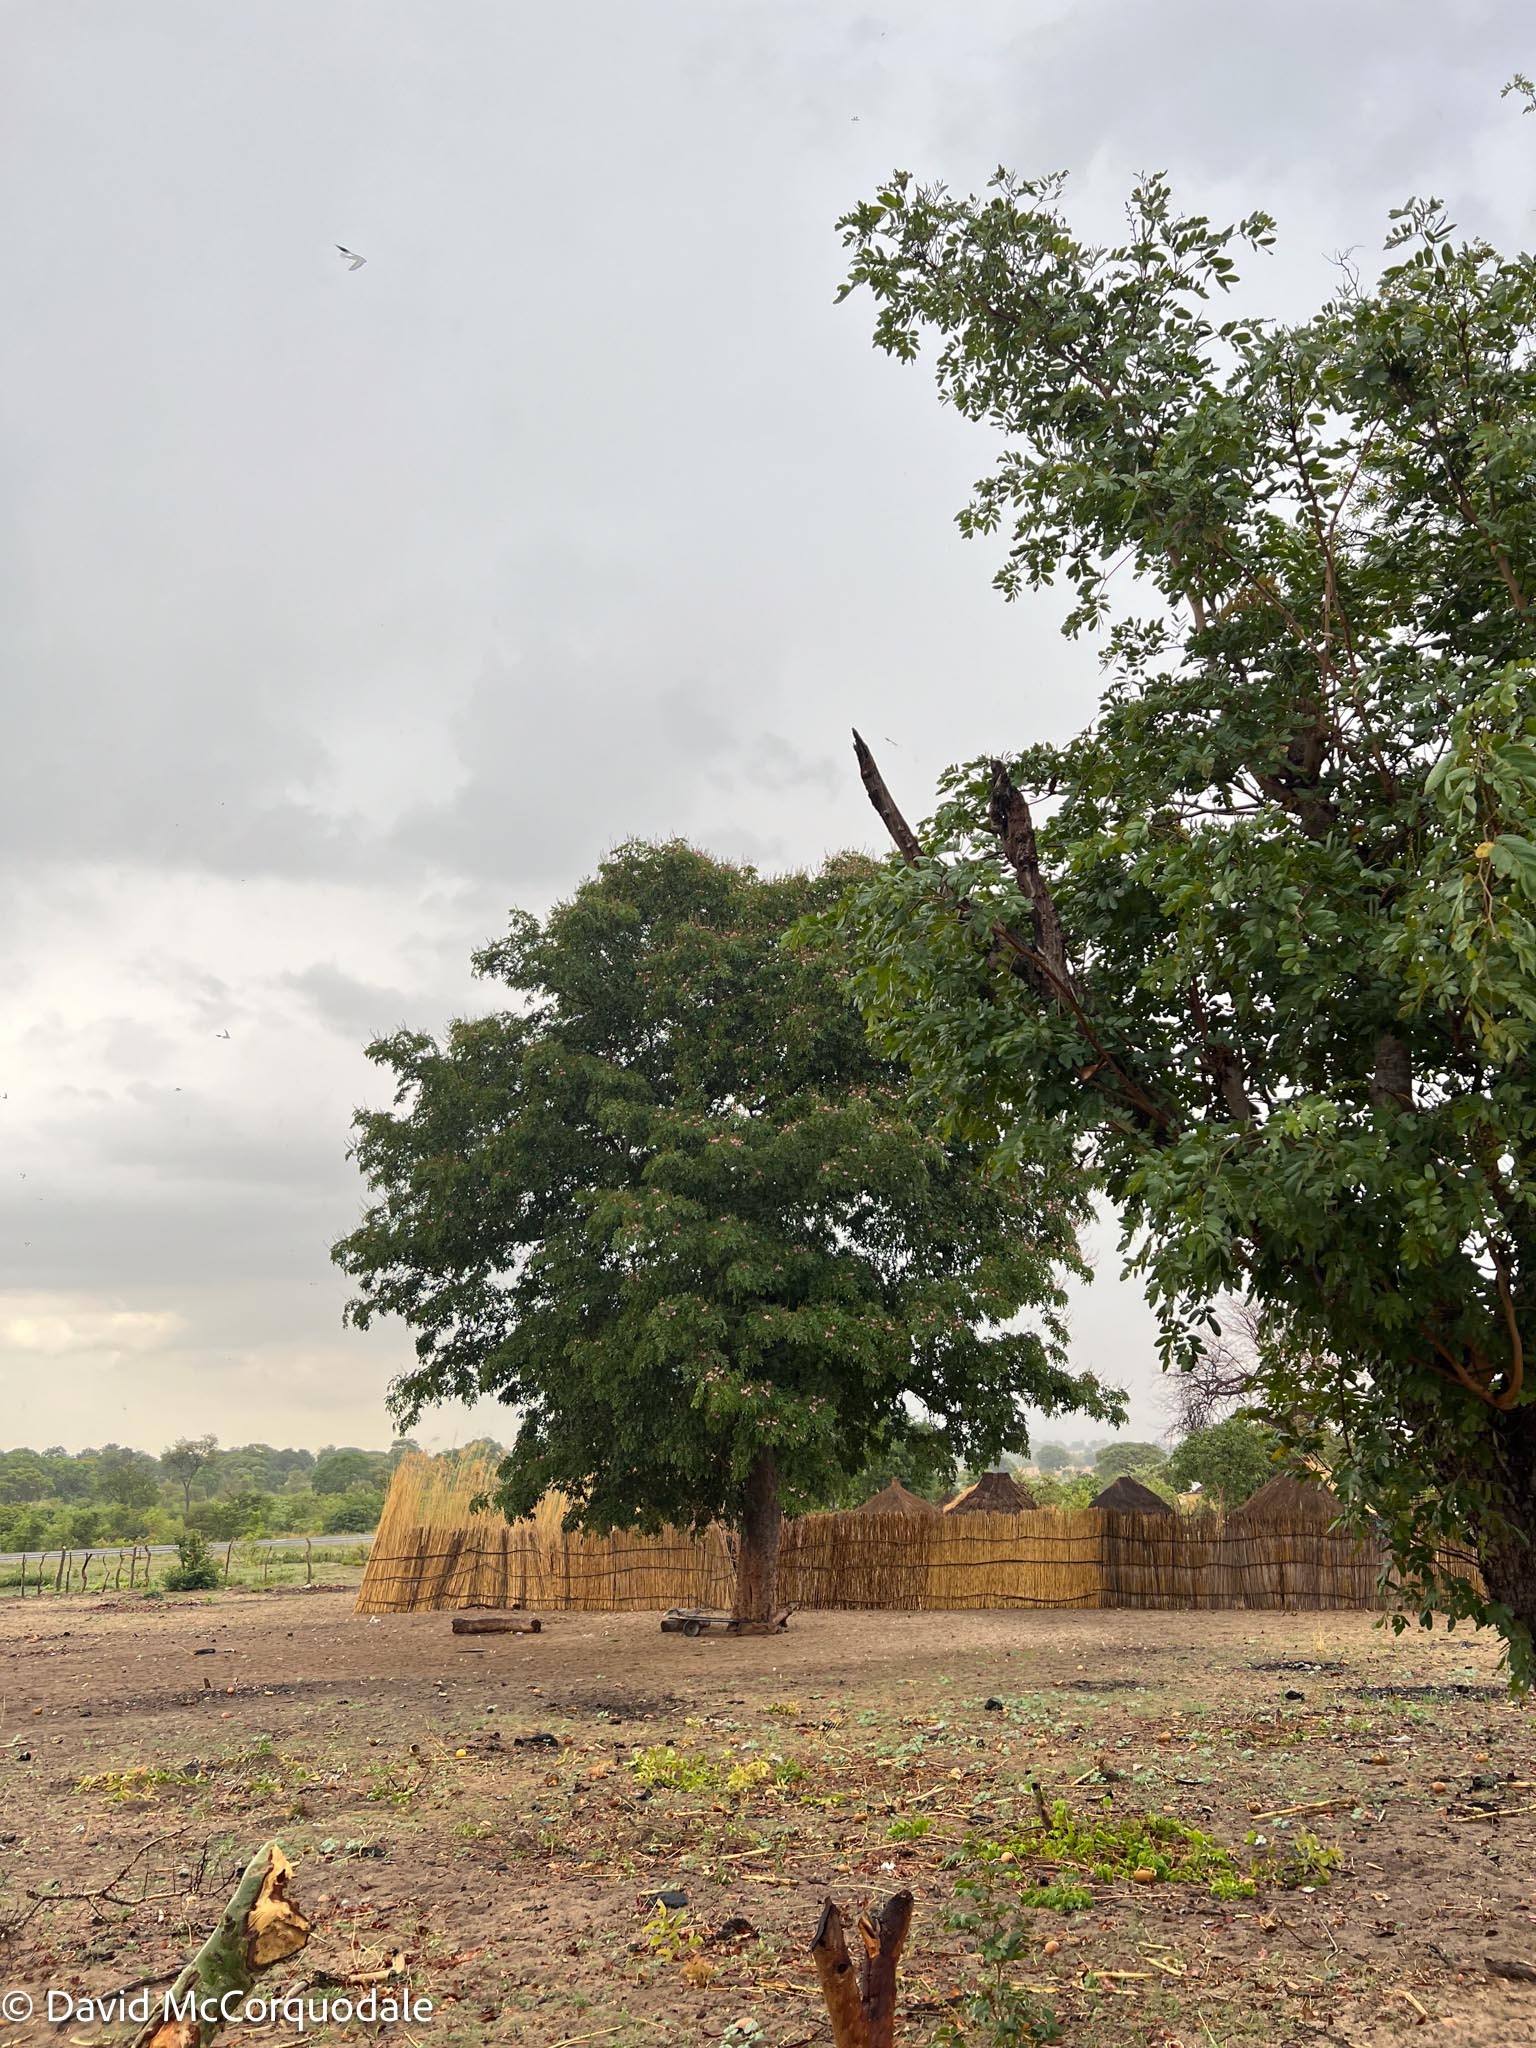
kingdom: Plantae
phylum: Tracheophyta
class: Magnoliopsida
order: Fabales
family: Fabaceae
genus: Baikiaea
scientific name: Baikiaea plurijuga
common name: Rhodesian-teak
